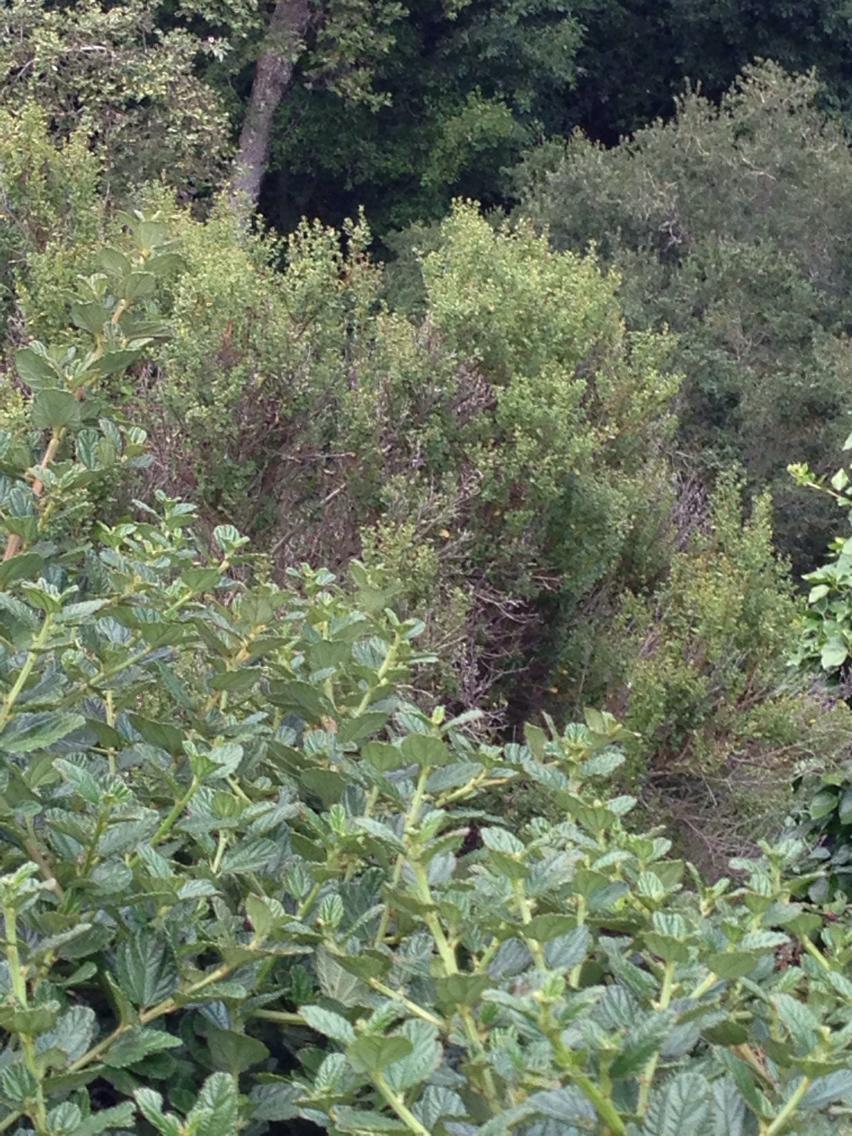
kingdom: Plantae
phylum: Tracheophyta
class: Magnoliopsida
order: Asterales
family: Asteraceae
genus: Baccharis
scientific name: Baccharis pilularis
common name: Coyotebrush
